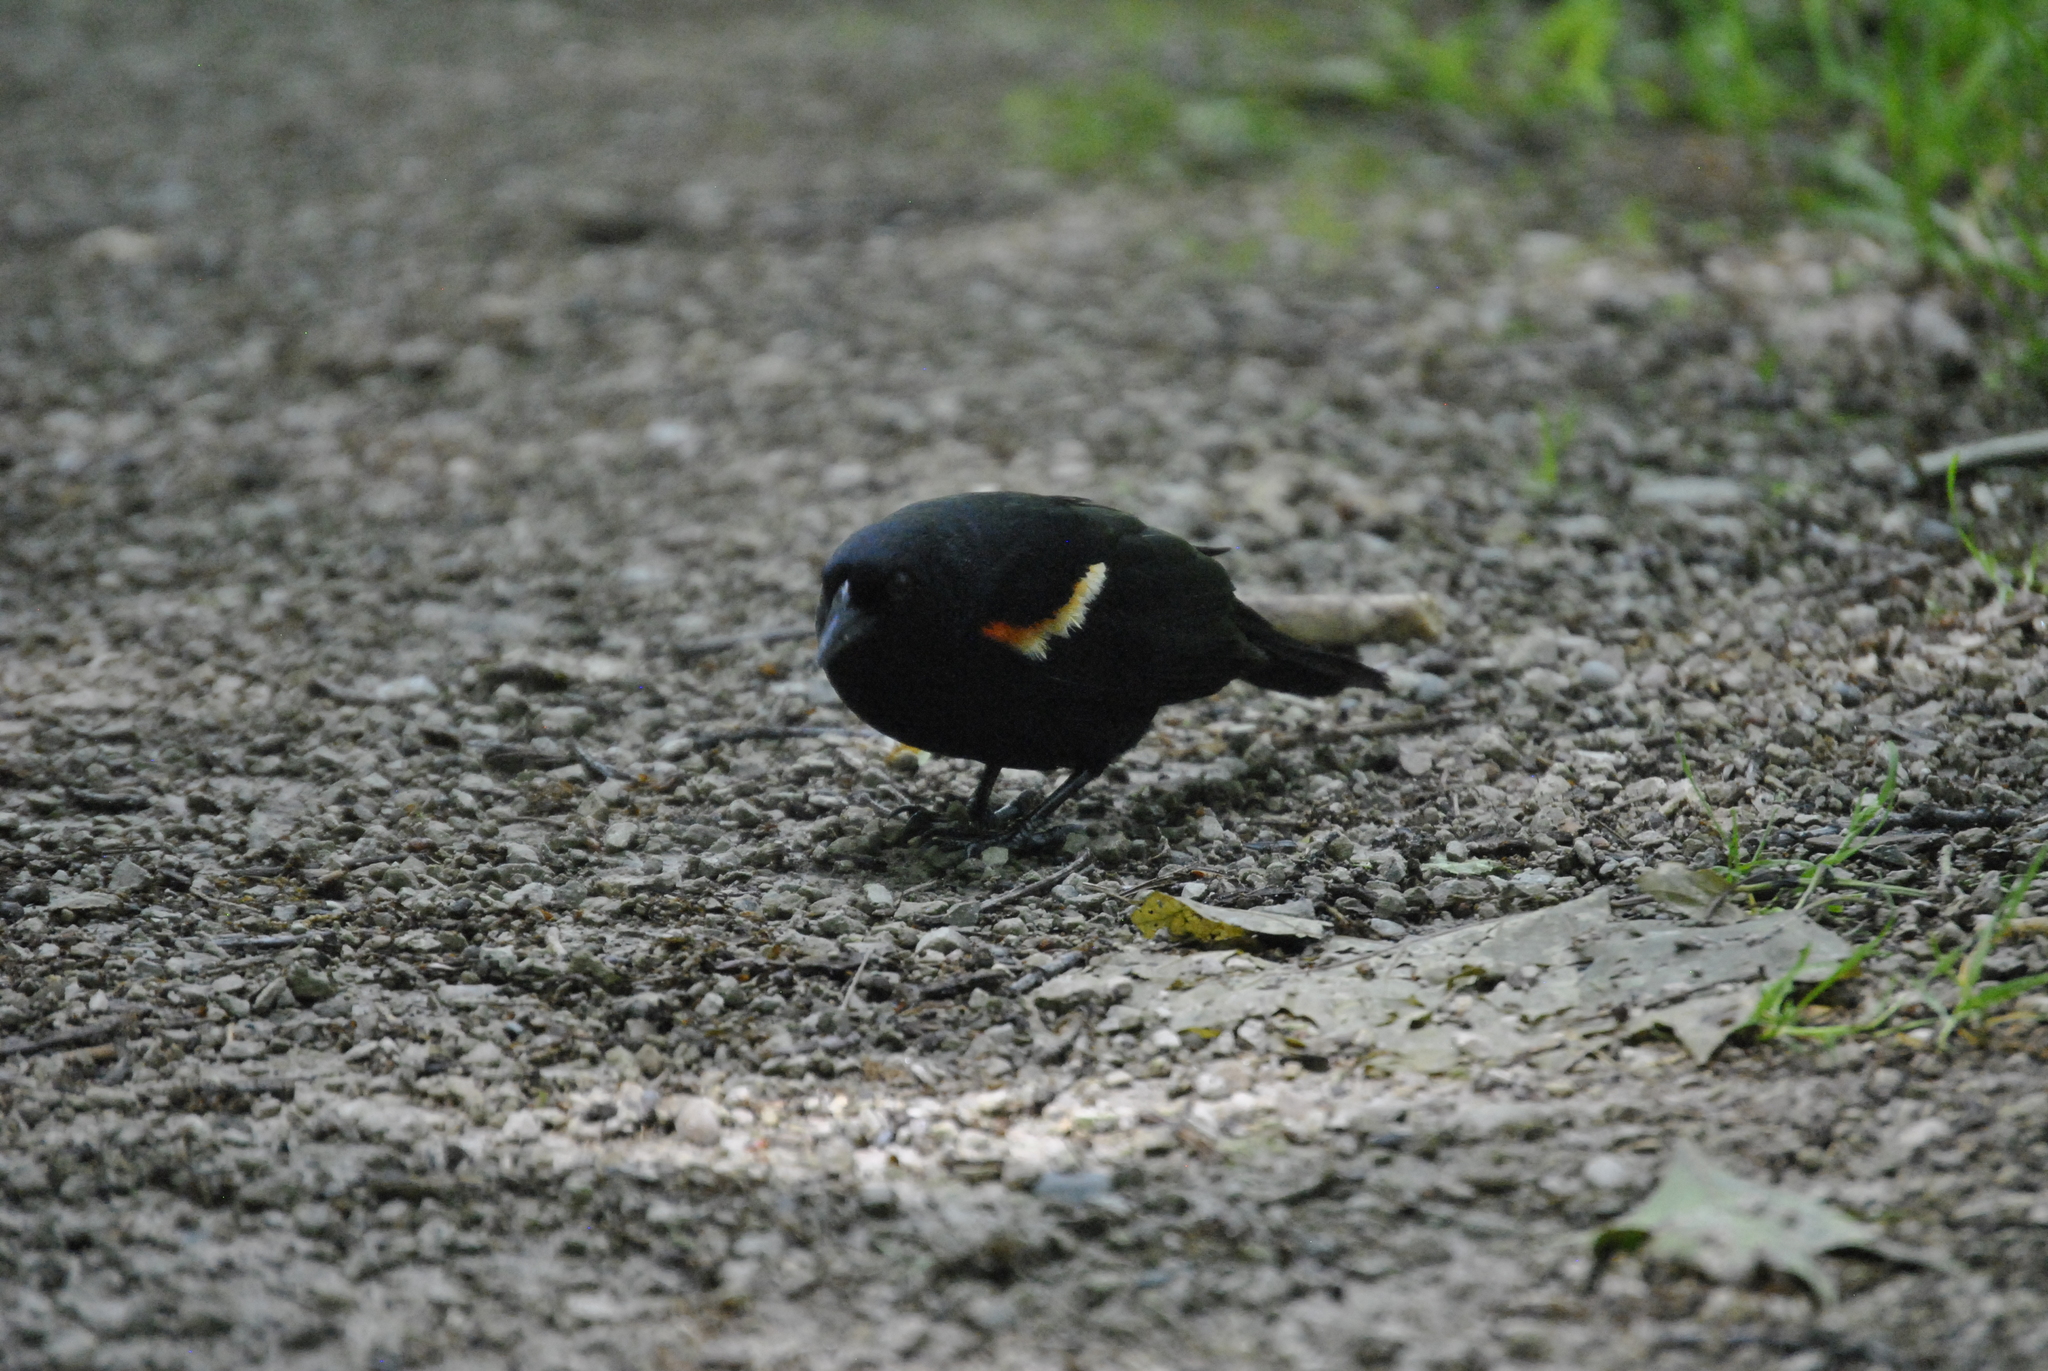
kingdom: Animalia
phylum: Chordata
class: Aves
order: Passeriformes
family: Icteridae
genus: Agelaius
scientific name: Agelaius phoeniceus
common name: Red-winged blackbird
